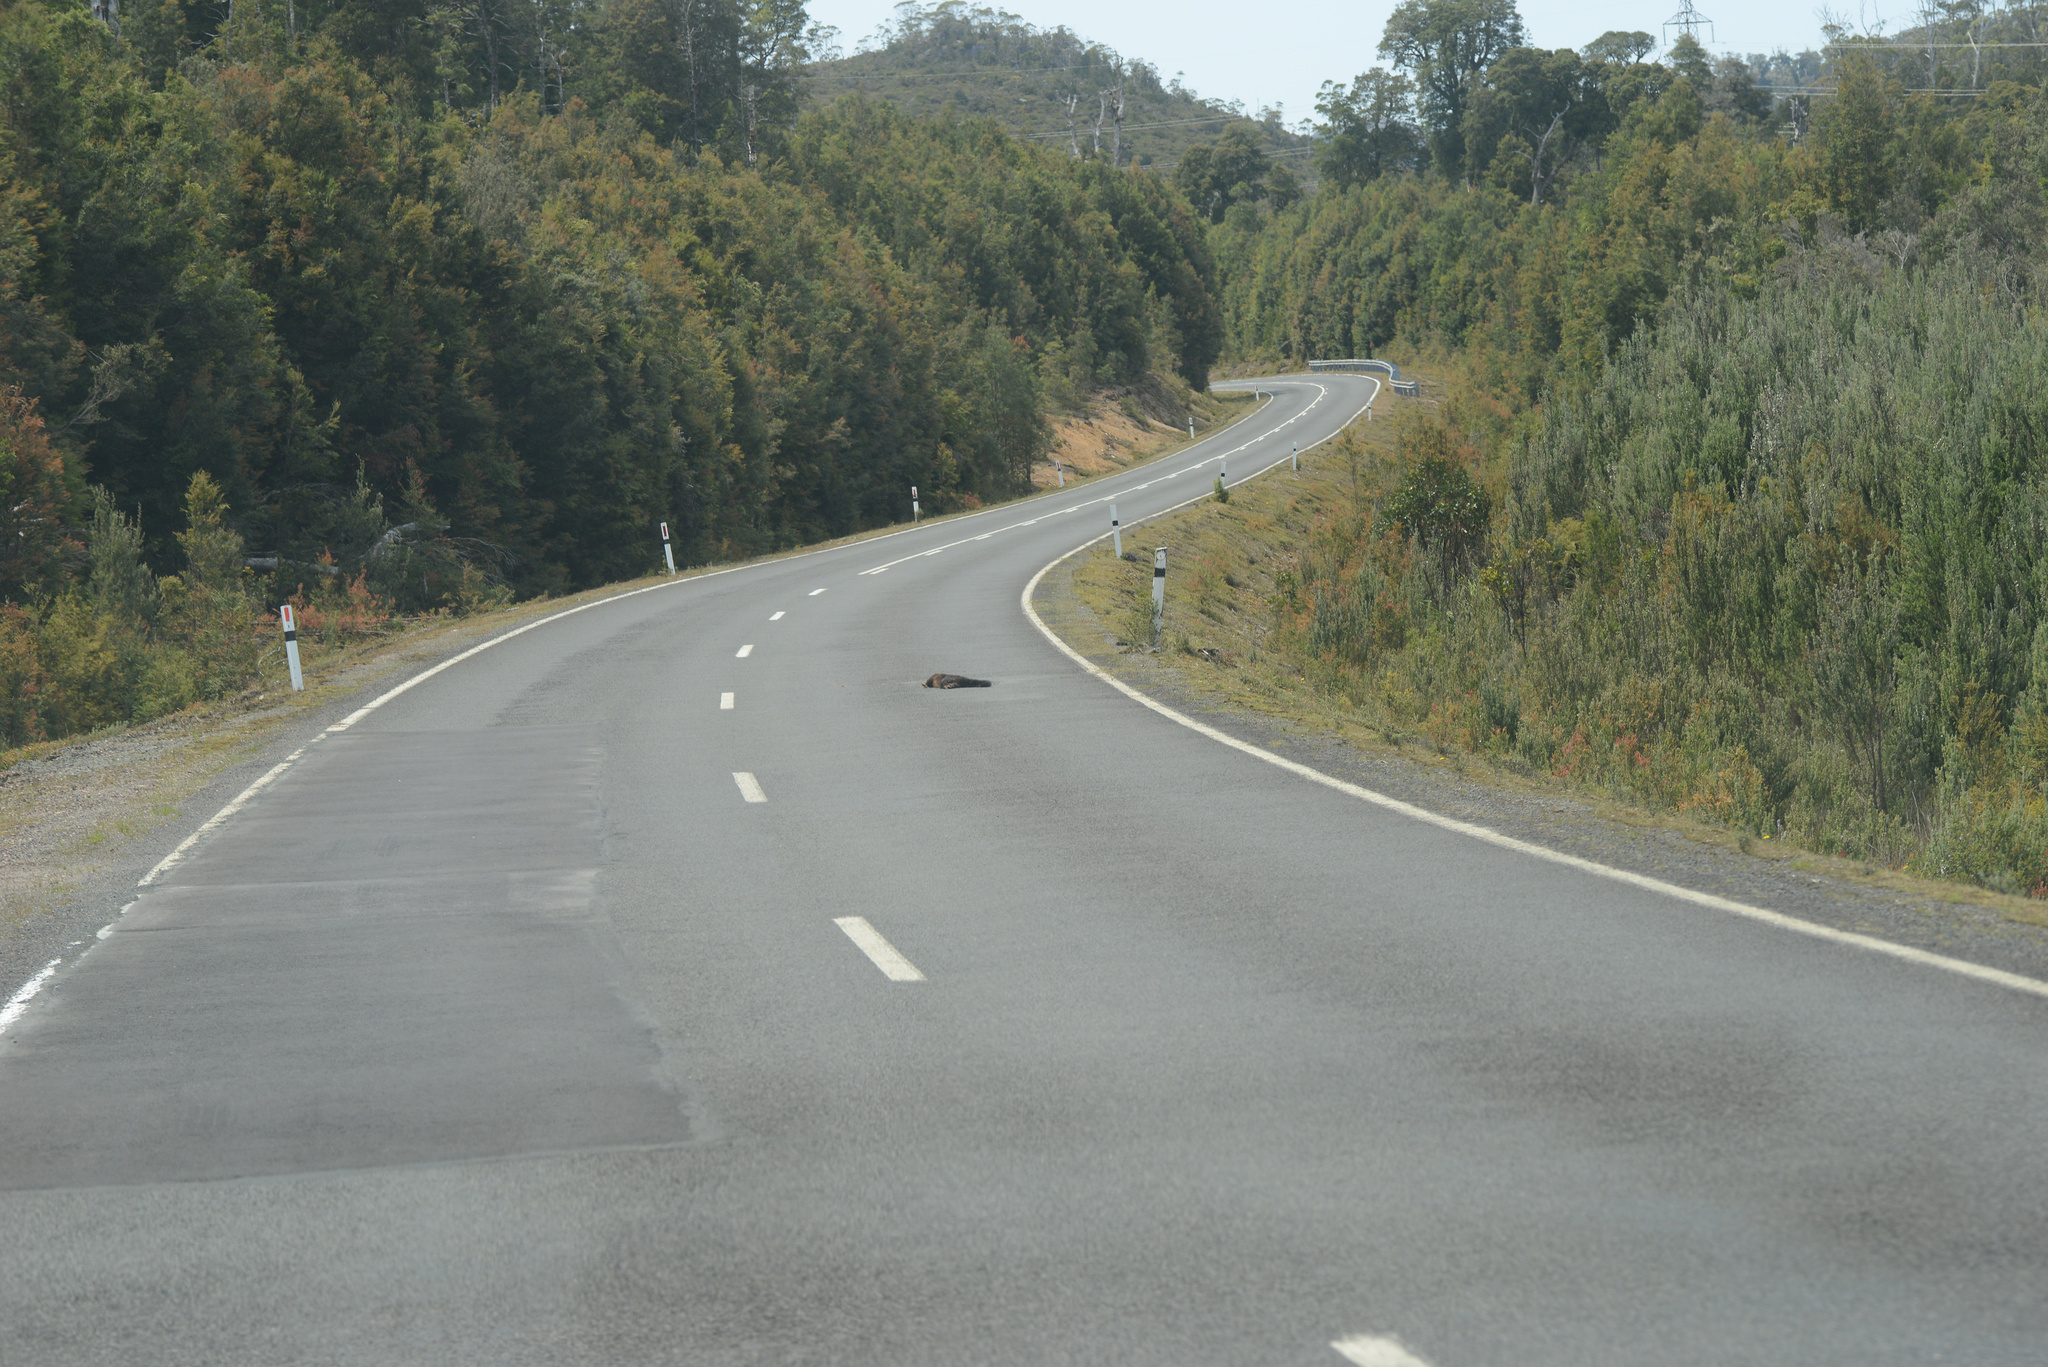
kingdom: Animalia
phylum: Chordata
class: Mammalia
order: Diprotodontia
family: Phalangeridae
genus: Trichosurus
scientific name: Trichosurus vulpecula
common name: Common brushtail
